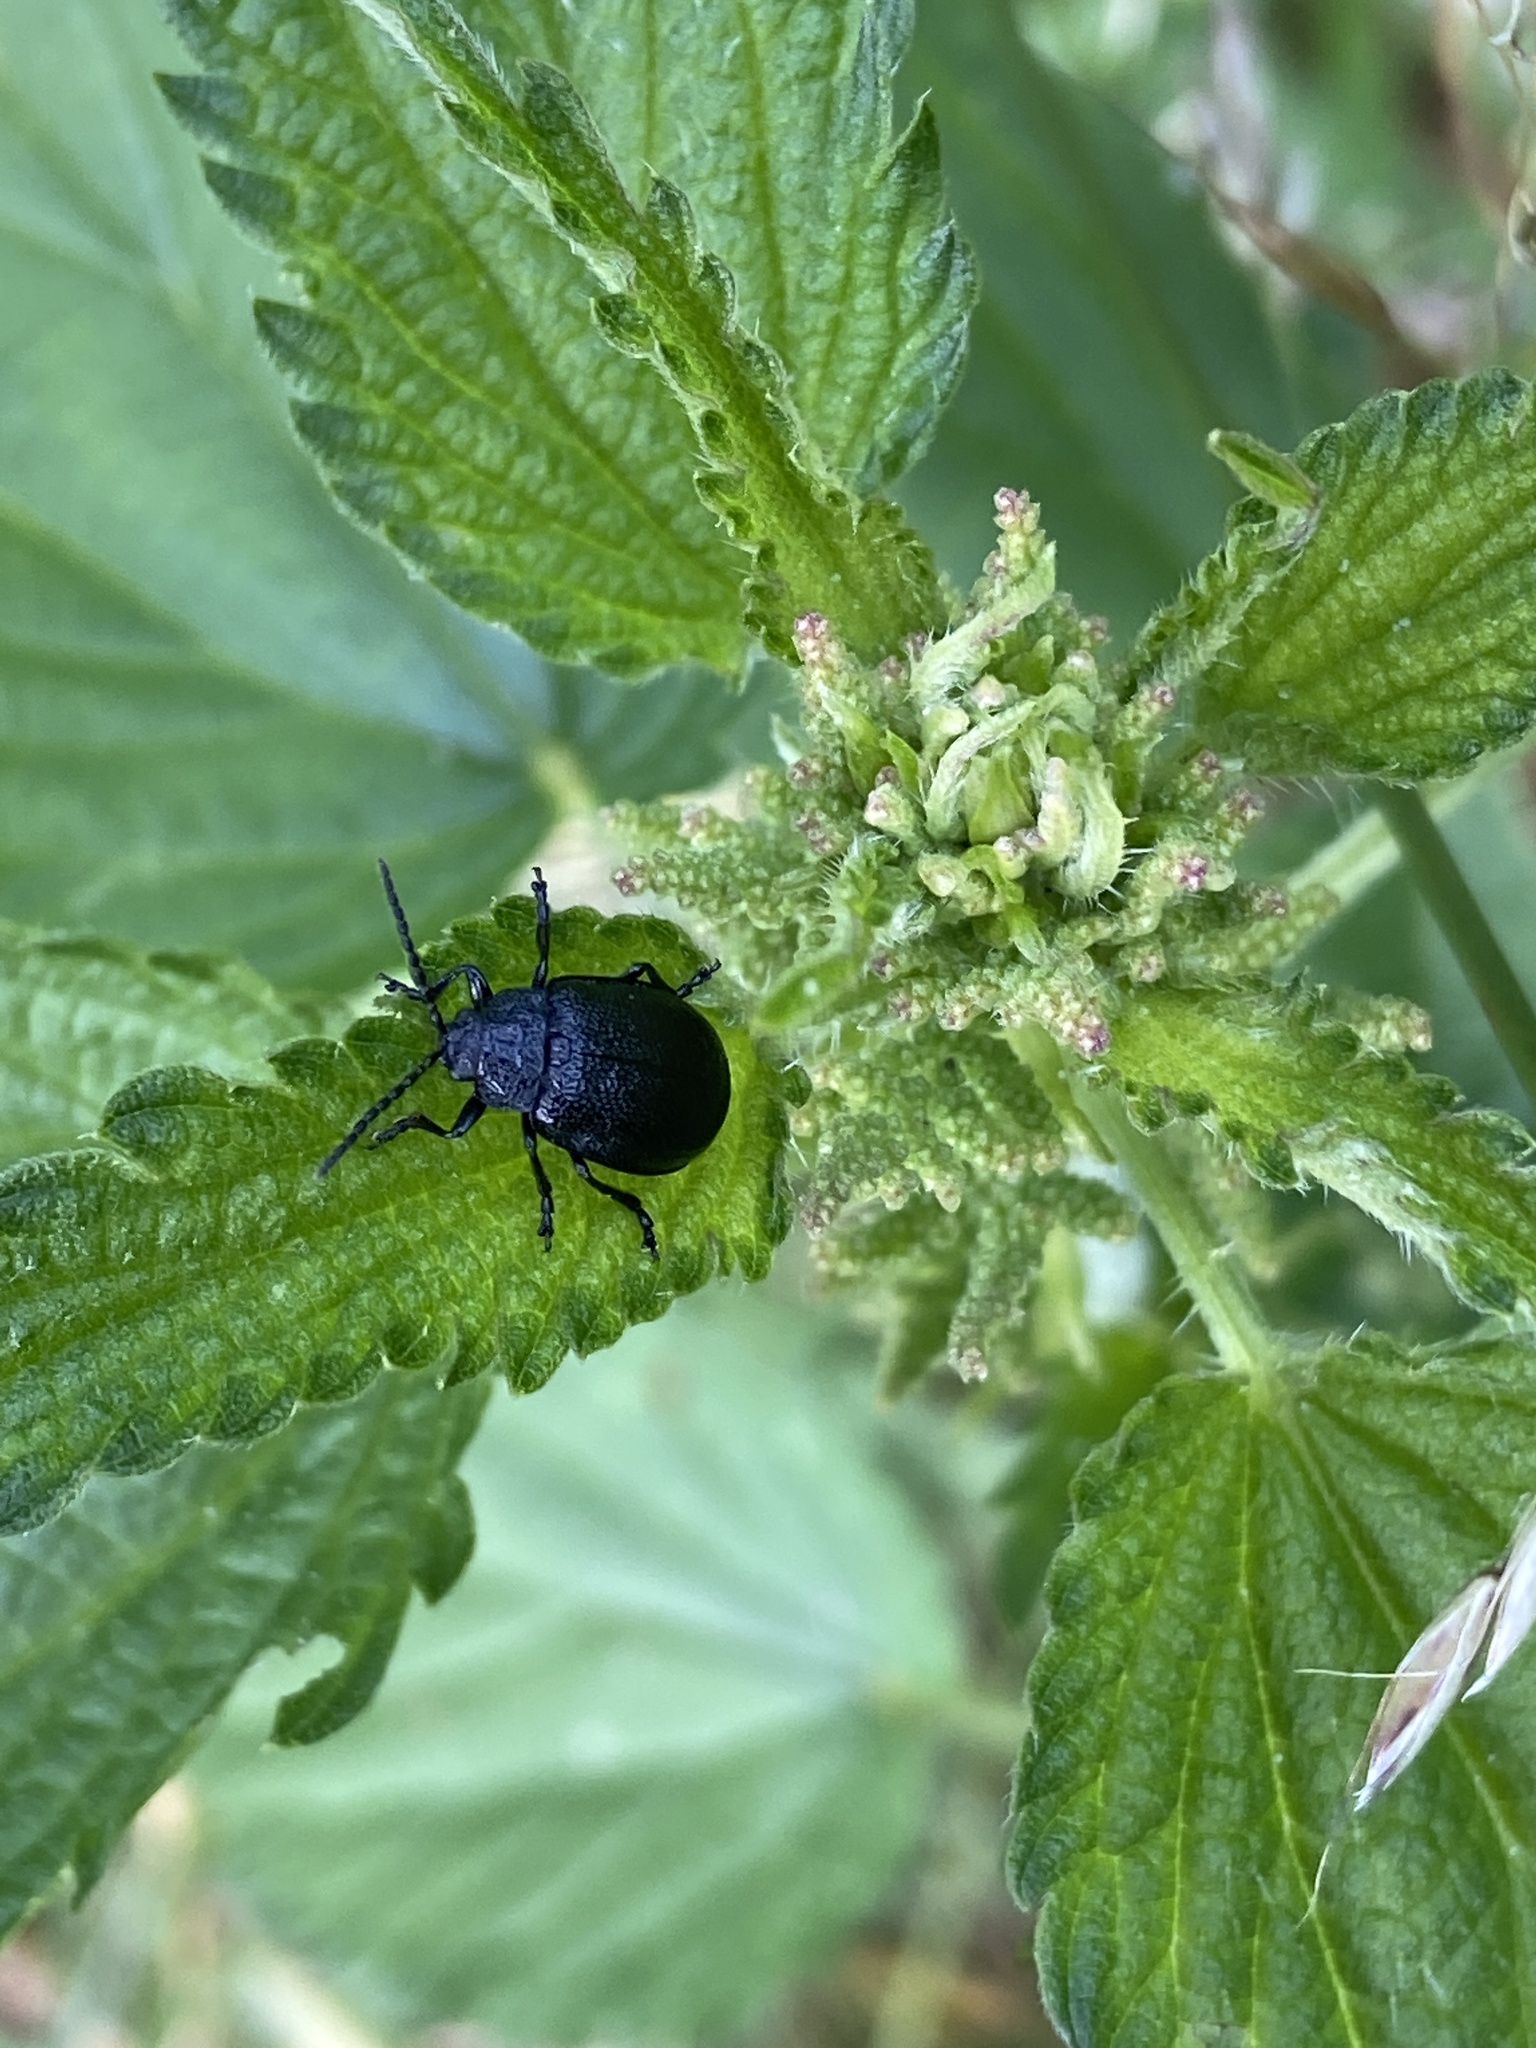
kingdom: Animalia
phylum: Arthropoda
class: Insecta
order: Coleoptera
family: Chrysomelidae
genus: Galeruca
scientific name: Galeruca tanaceti
